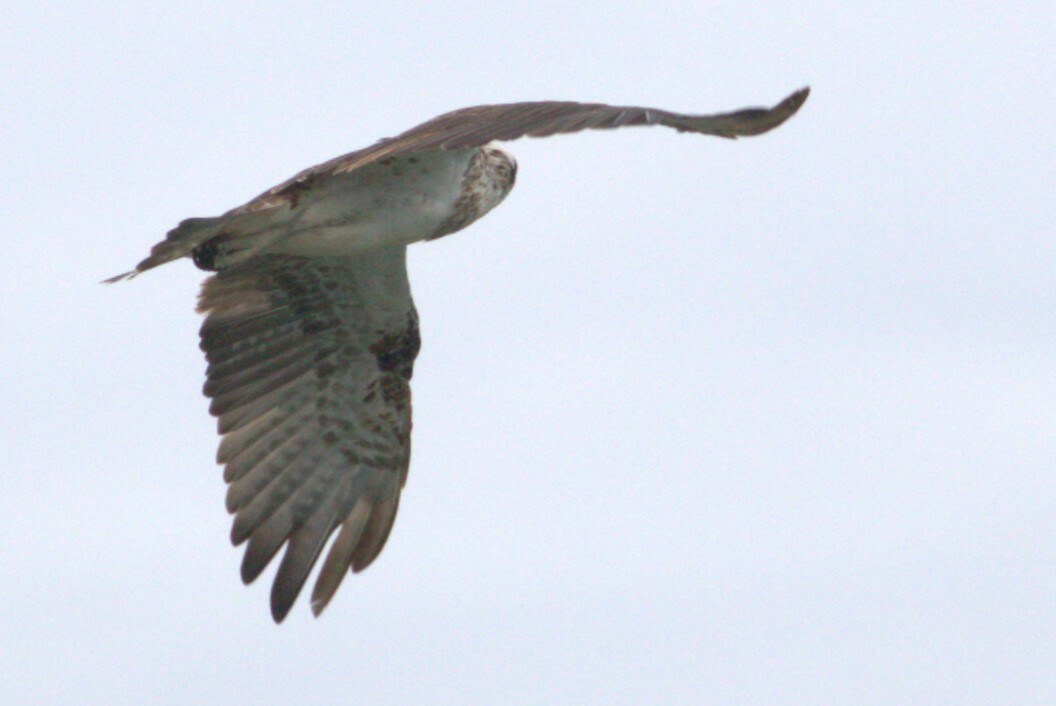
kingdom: Animalia
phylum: Chordata
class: Aves
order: Accipitriformes
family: Pandionidae
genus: Pandion
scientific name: Pandion haliaetus
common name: Osprey
